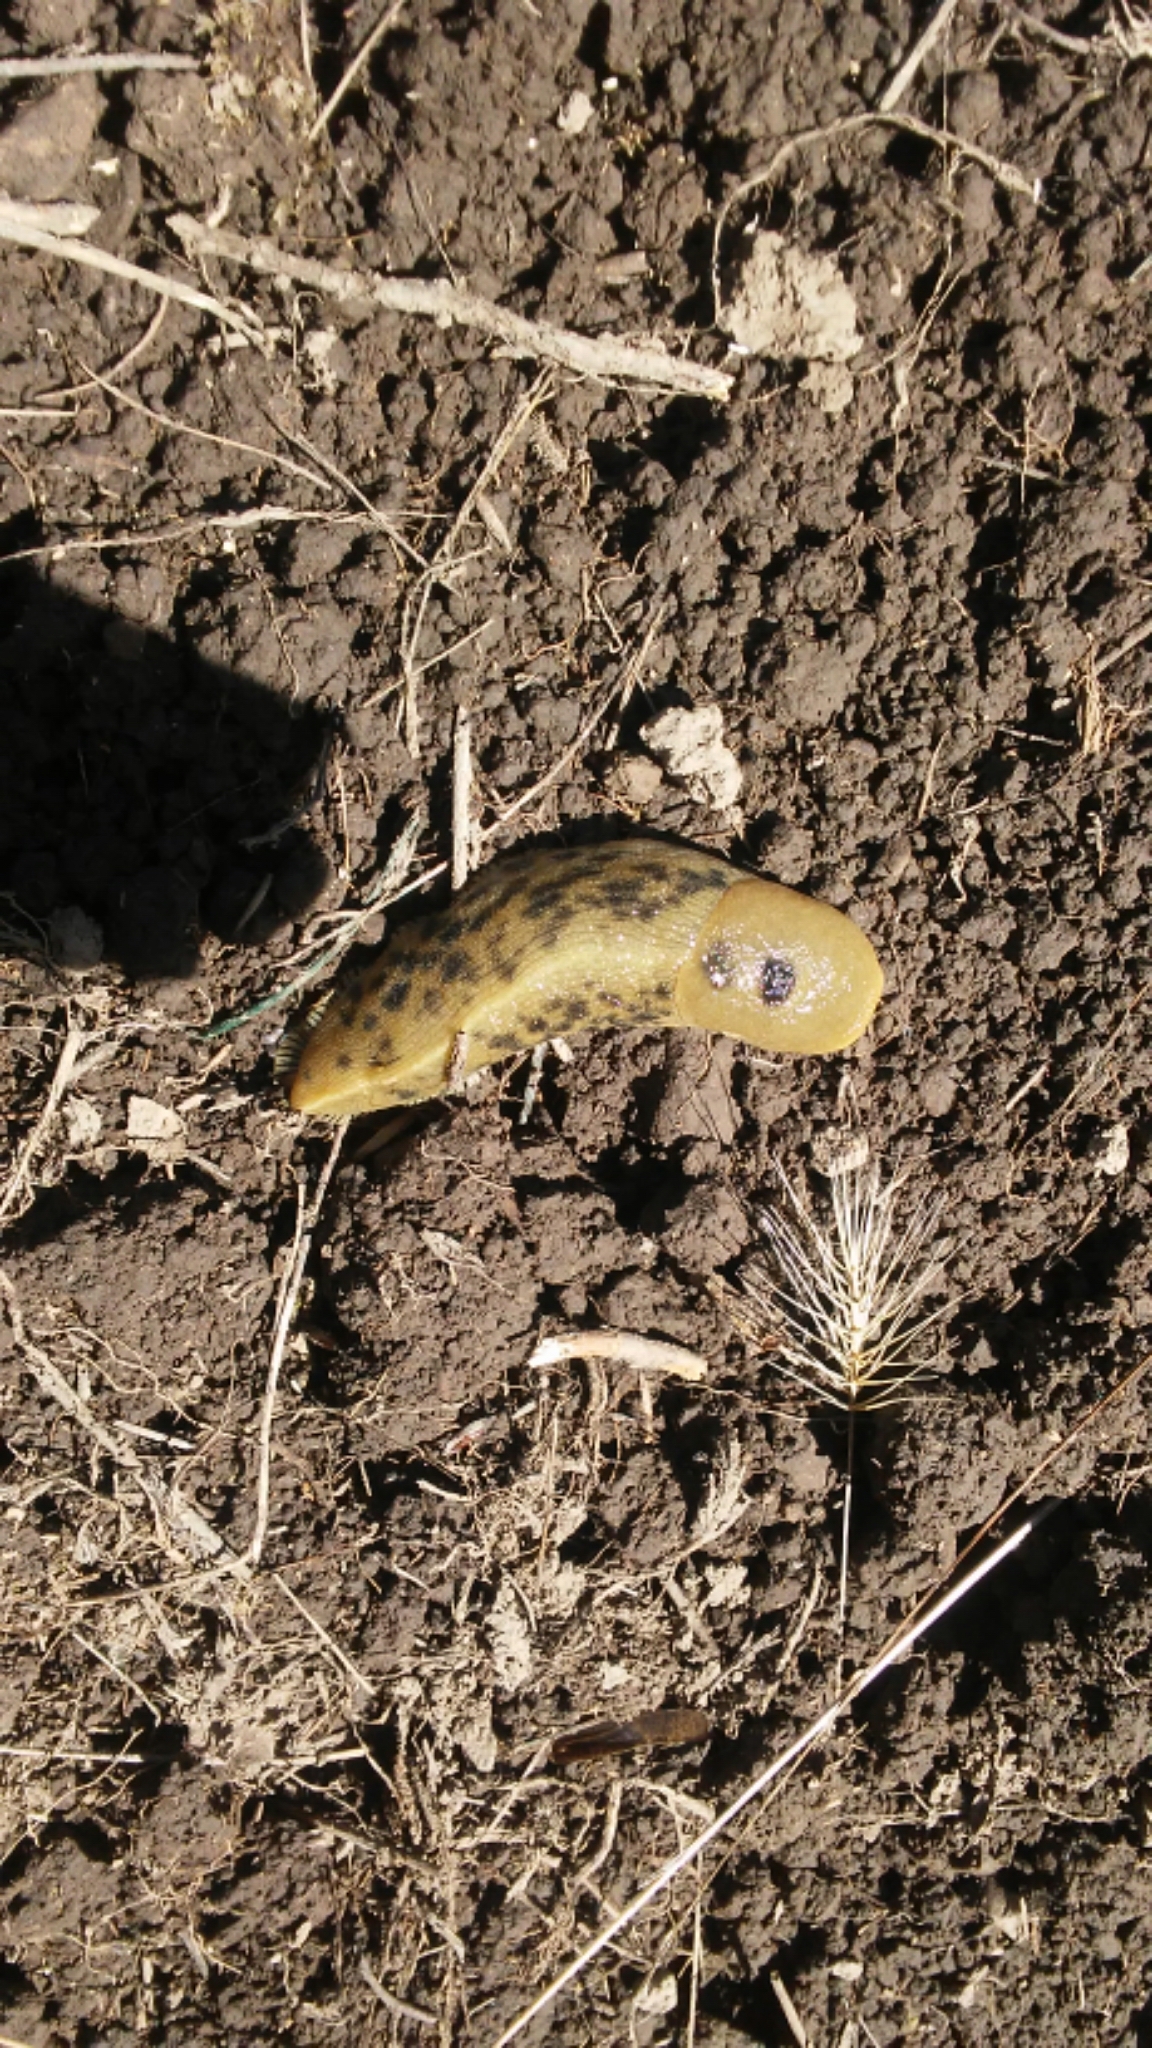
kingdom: Animalia
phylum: Mollusca
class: Gastropoda
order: Stylommatophora
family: Ariolimacidae
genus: Ariolimax
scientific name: Ariolimax buttoni
